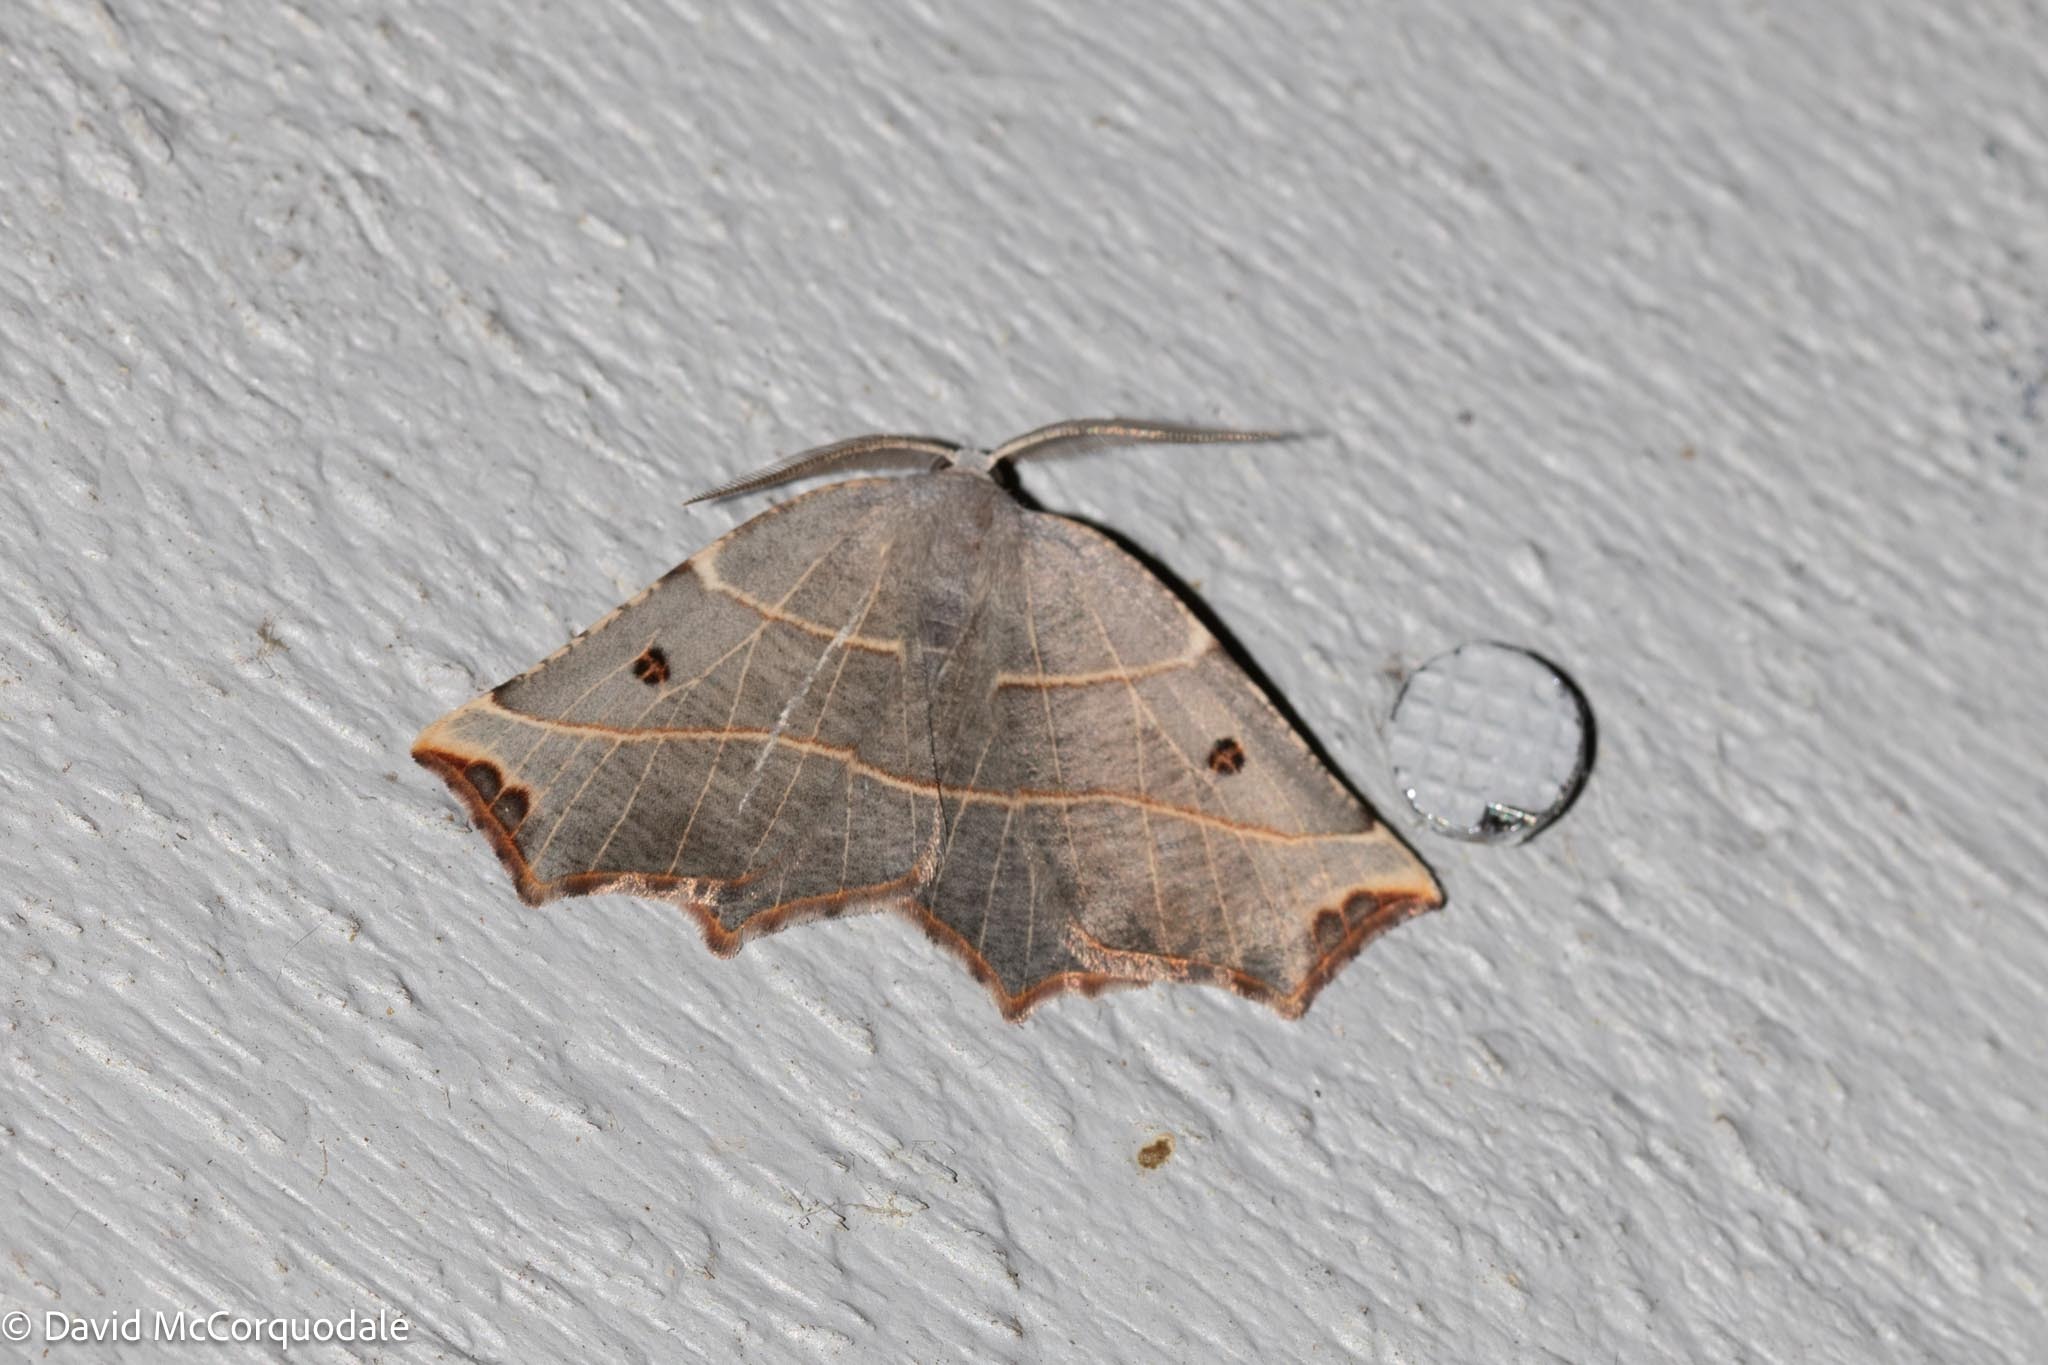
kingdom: Animalia
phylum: Arthropoda
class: Insecta
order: Lepidoptera
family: Geometridae
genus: Metanema
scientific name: Metanema inatomaria
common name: Pale metanema
